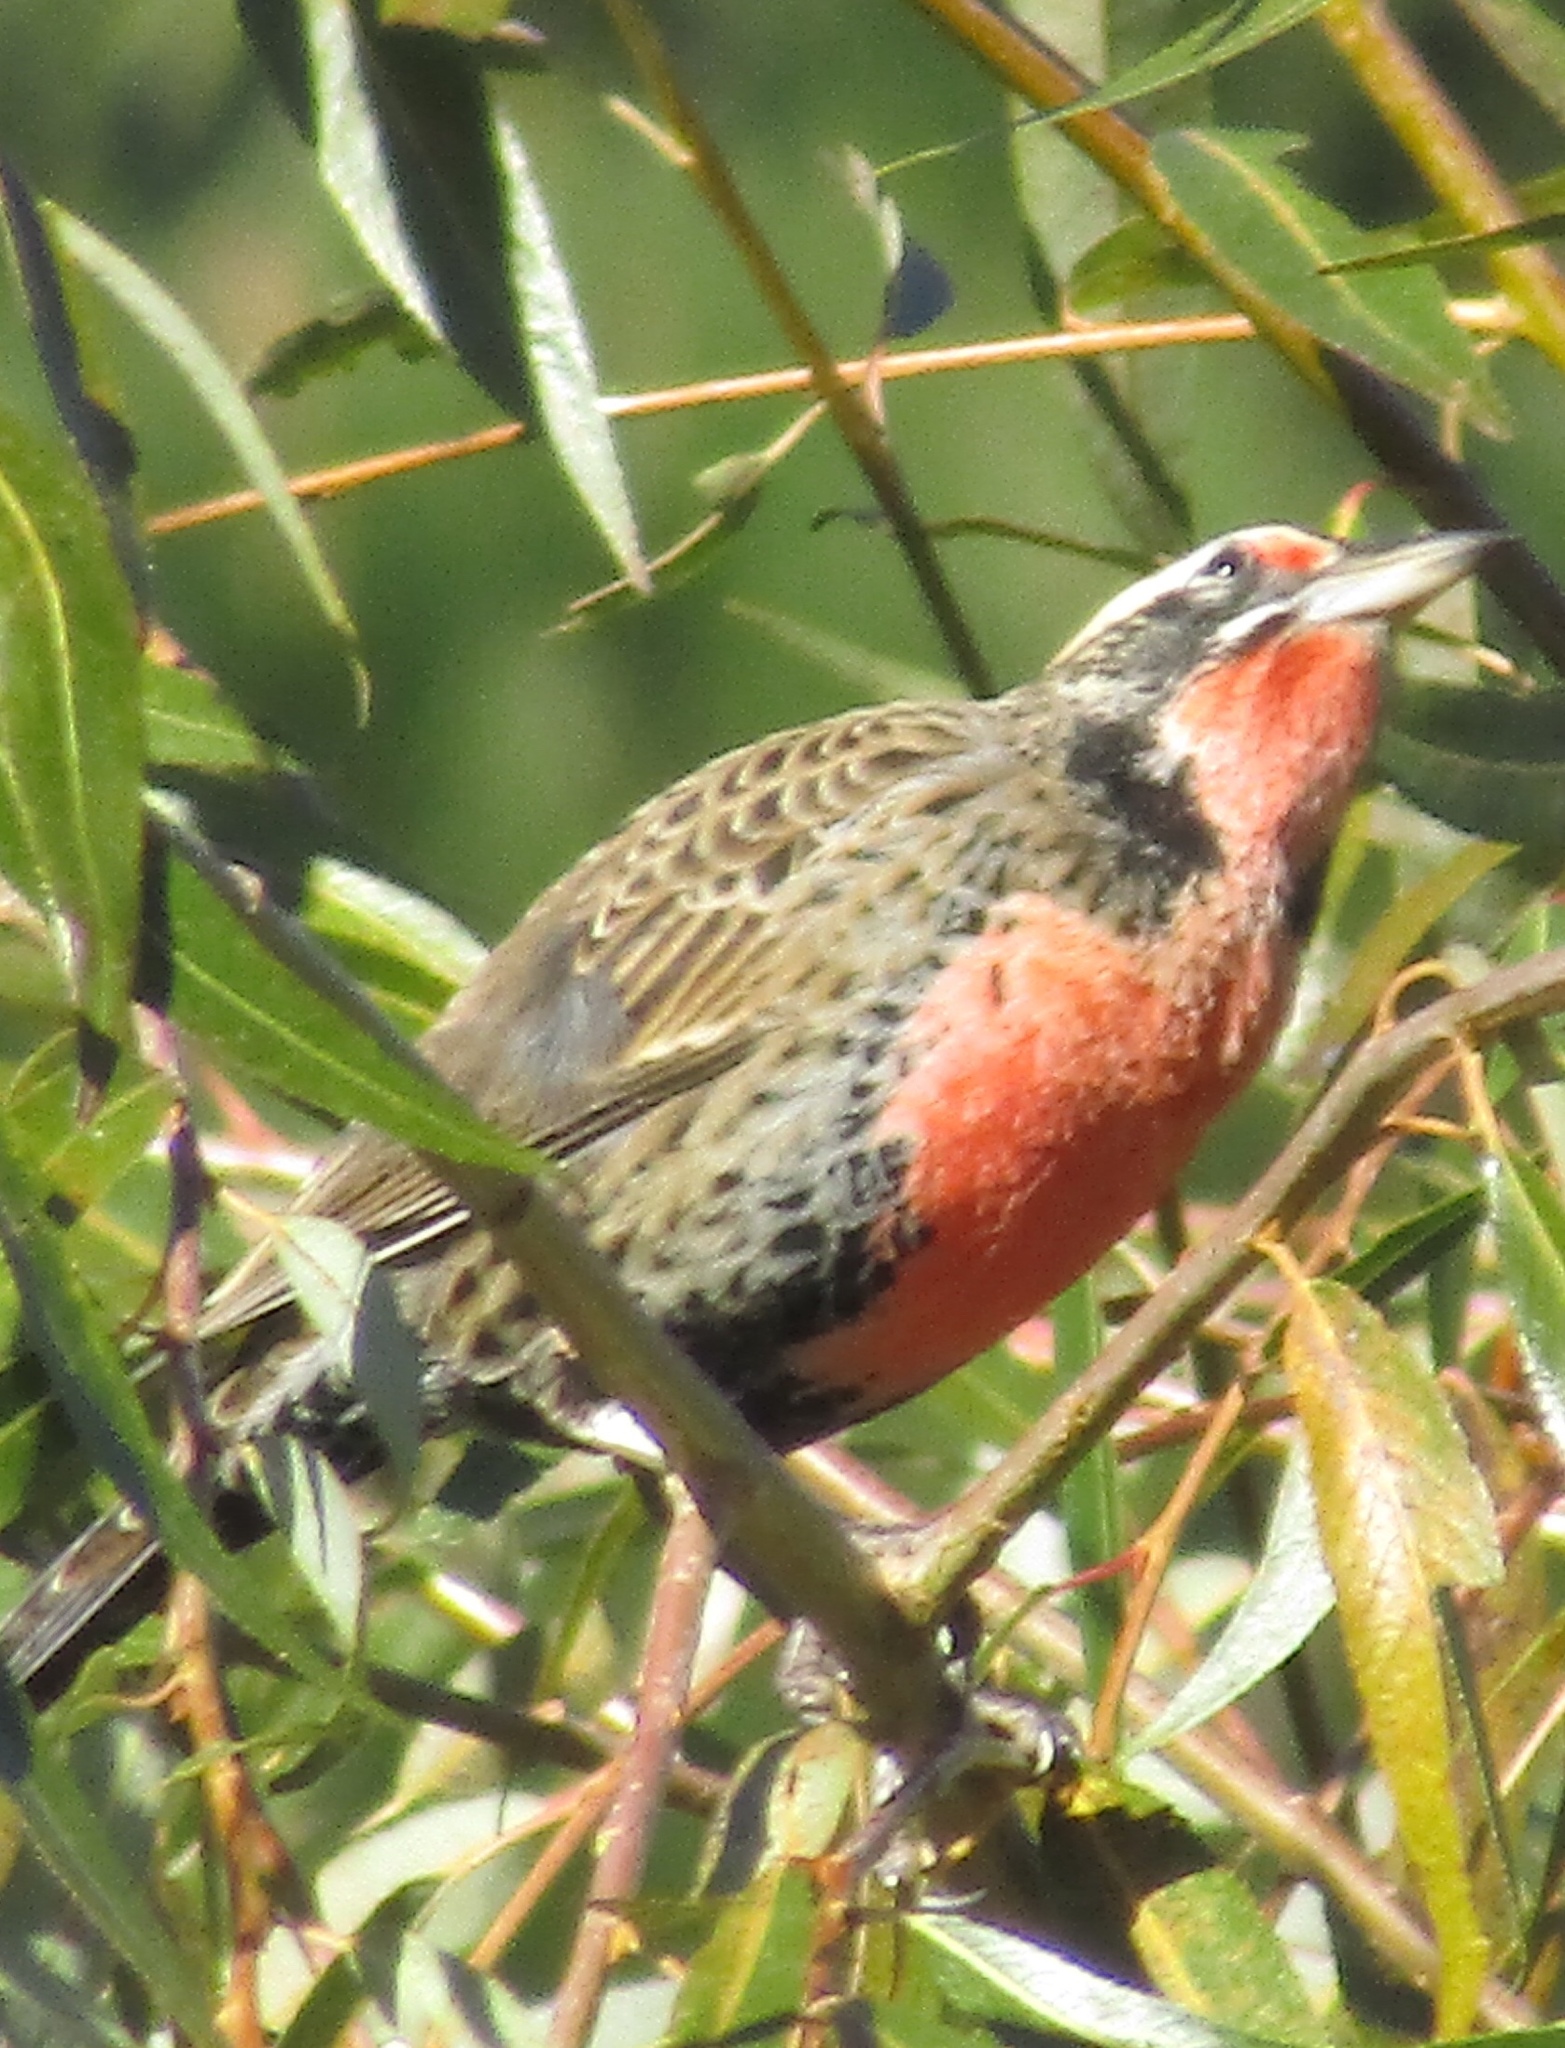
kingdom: Animalia
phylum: Chordata
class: Aves
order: Passeriformes
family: Icteridae
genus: Sturnella
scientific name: Sturnella loyca
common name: Long-tailed meadowlark
